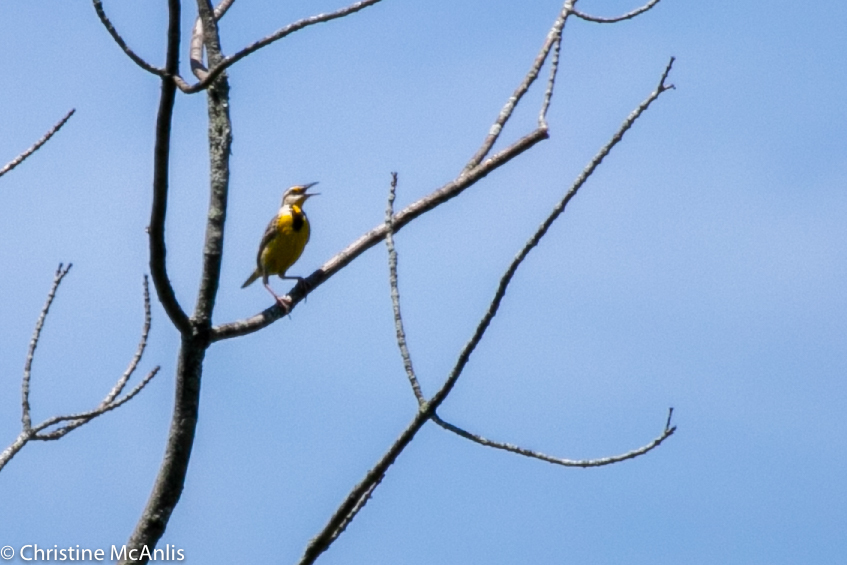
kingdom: Animalia
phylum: Chordata
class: Aves
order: Passeriformes
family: Icteridae
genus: Sturnella
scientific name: Sturnella magna
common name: Eastern meadowlark
